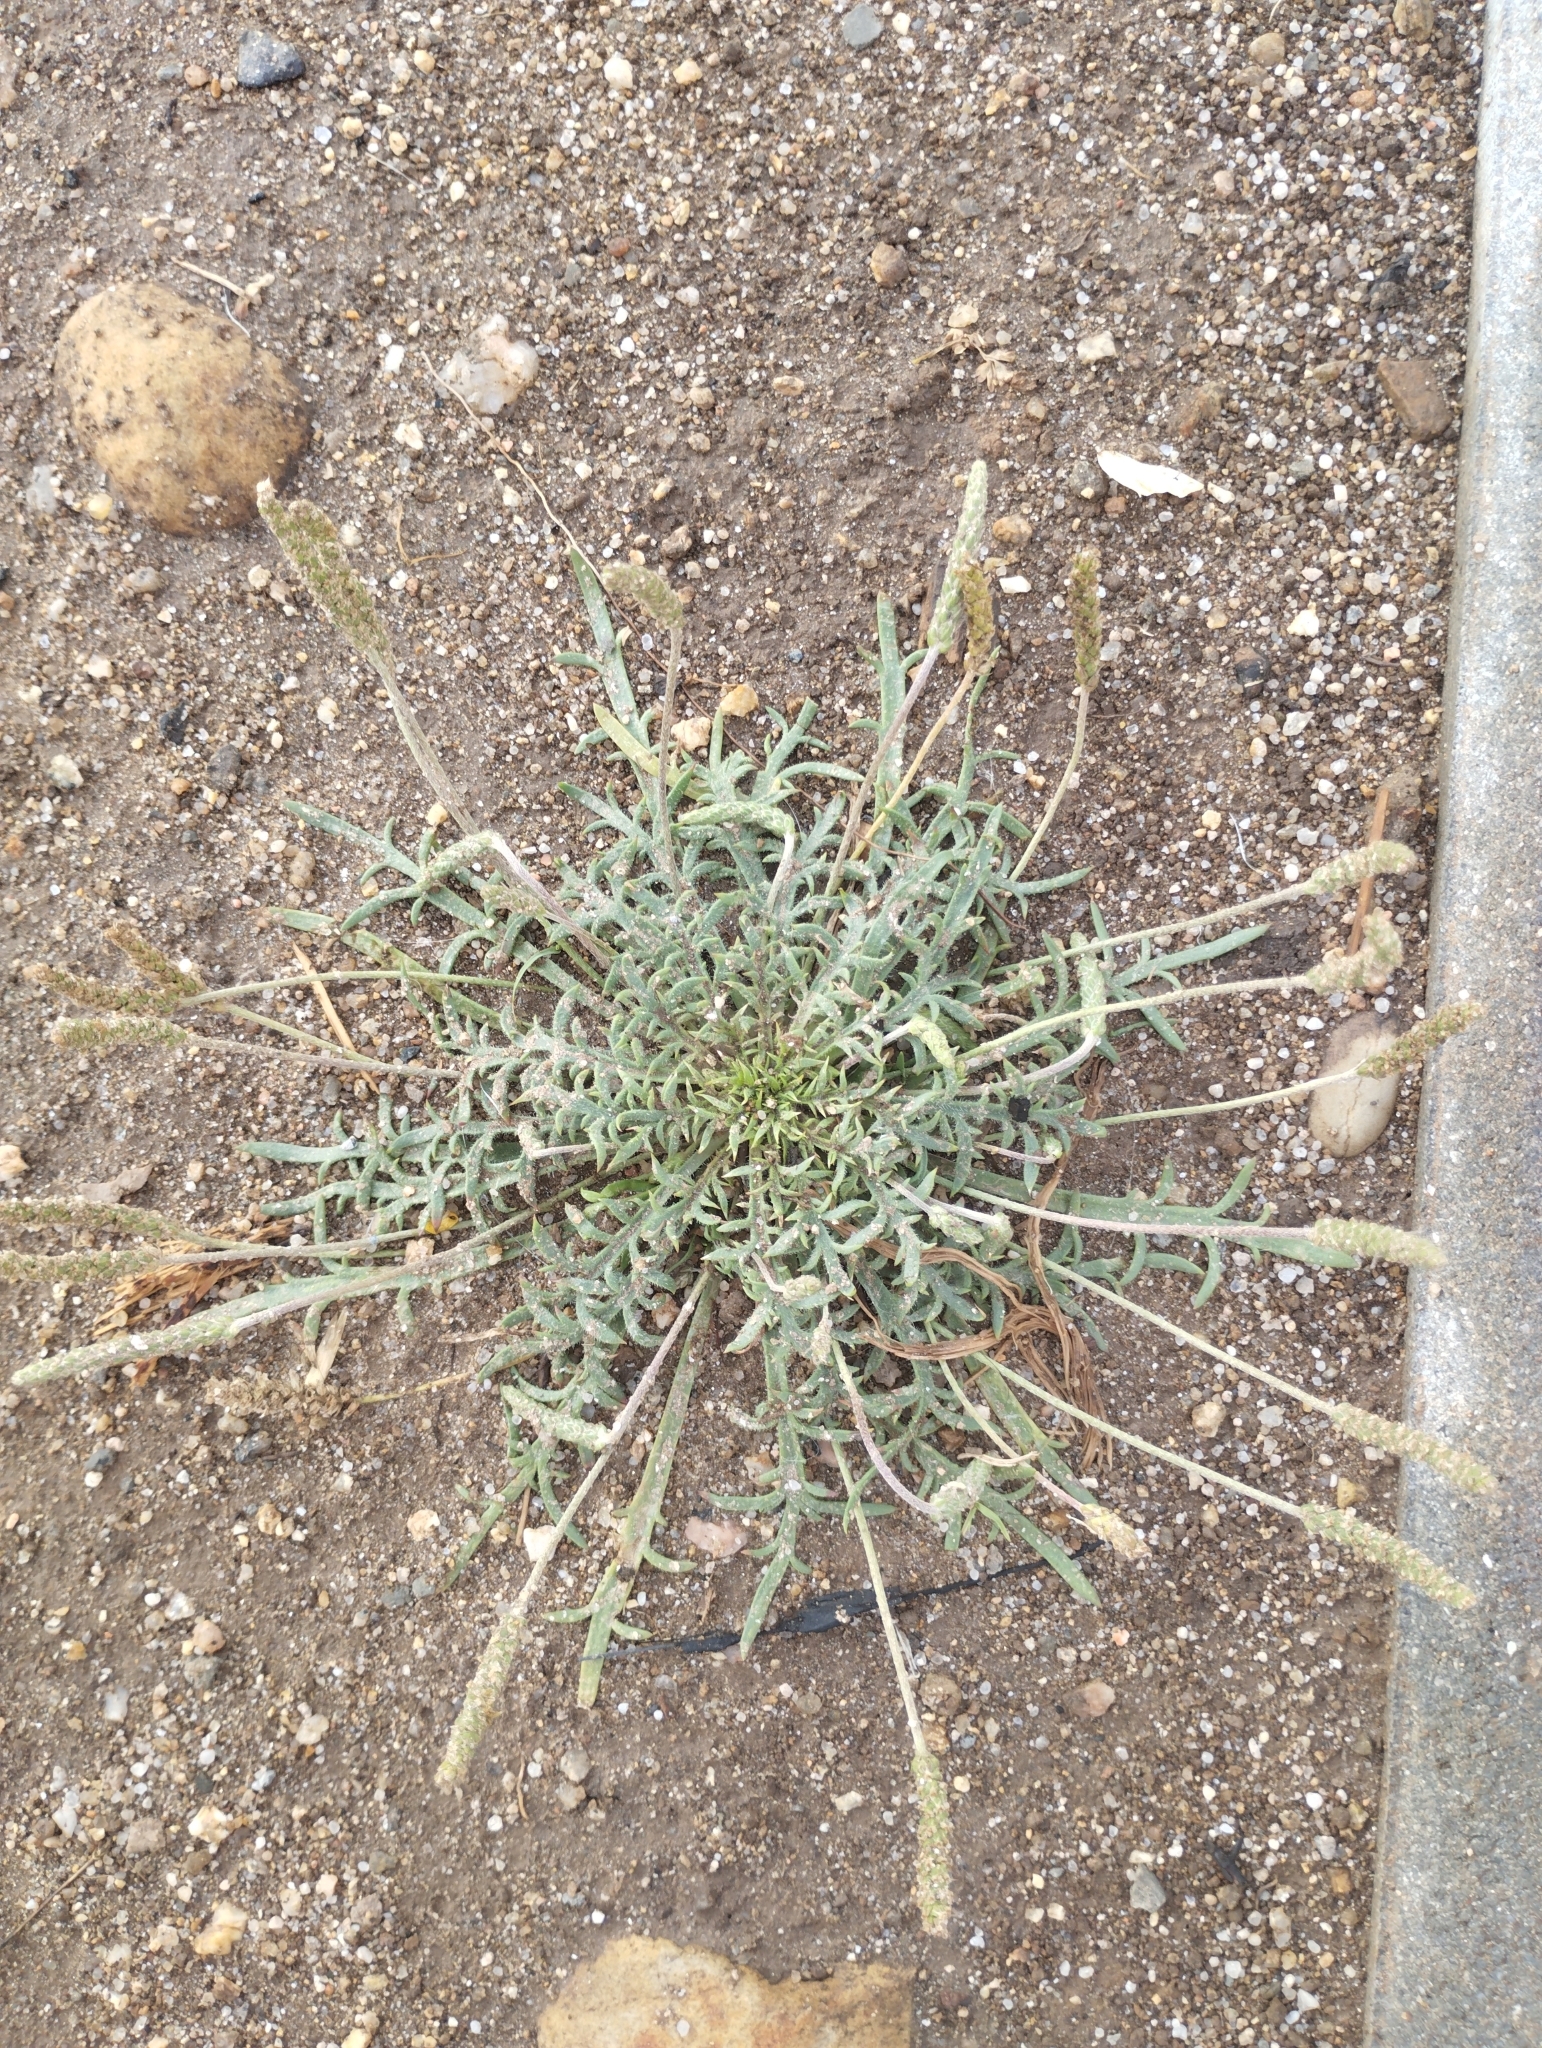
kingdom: Plantae
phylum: Tracheophyta
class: Magnoliopsida
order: Lamiales
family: Plantaginaceae
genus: Plantago
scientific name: Plantago coronopus
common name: Buck's-horn plantain
